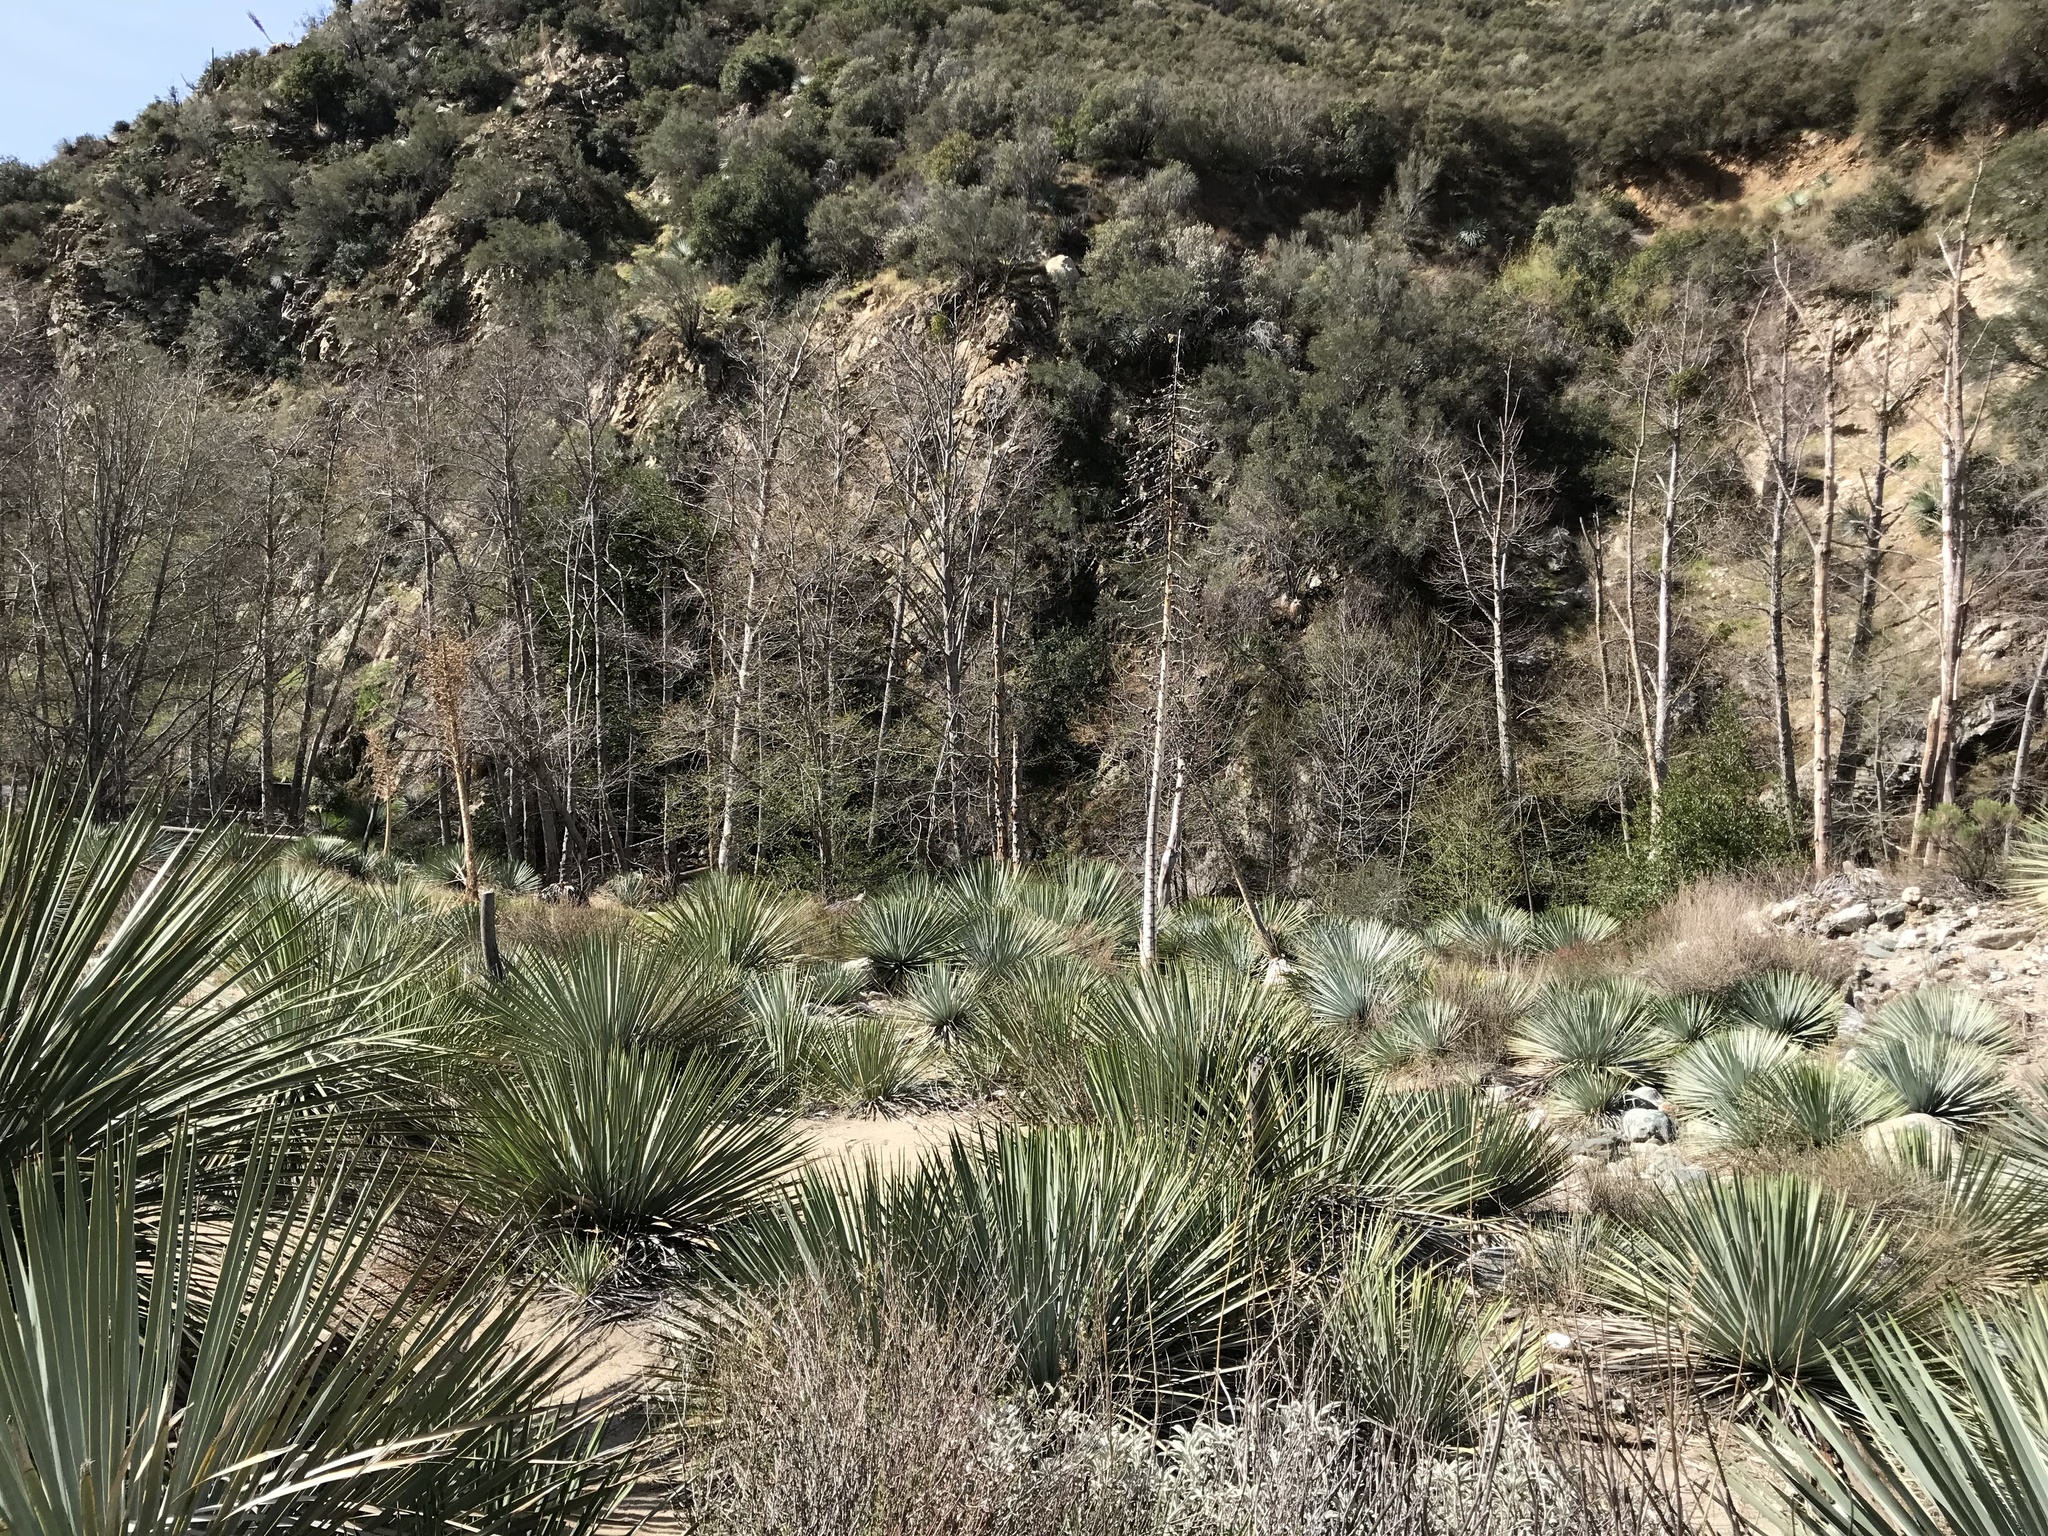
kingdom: Plantae
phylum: Tracheophyta
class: Liliopsida
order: Asparagales
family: Asparagaceae
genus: Hesperoyucca
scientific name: Hesperoyucca whipplei
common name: Our lord's-candle
